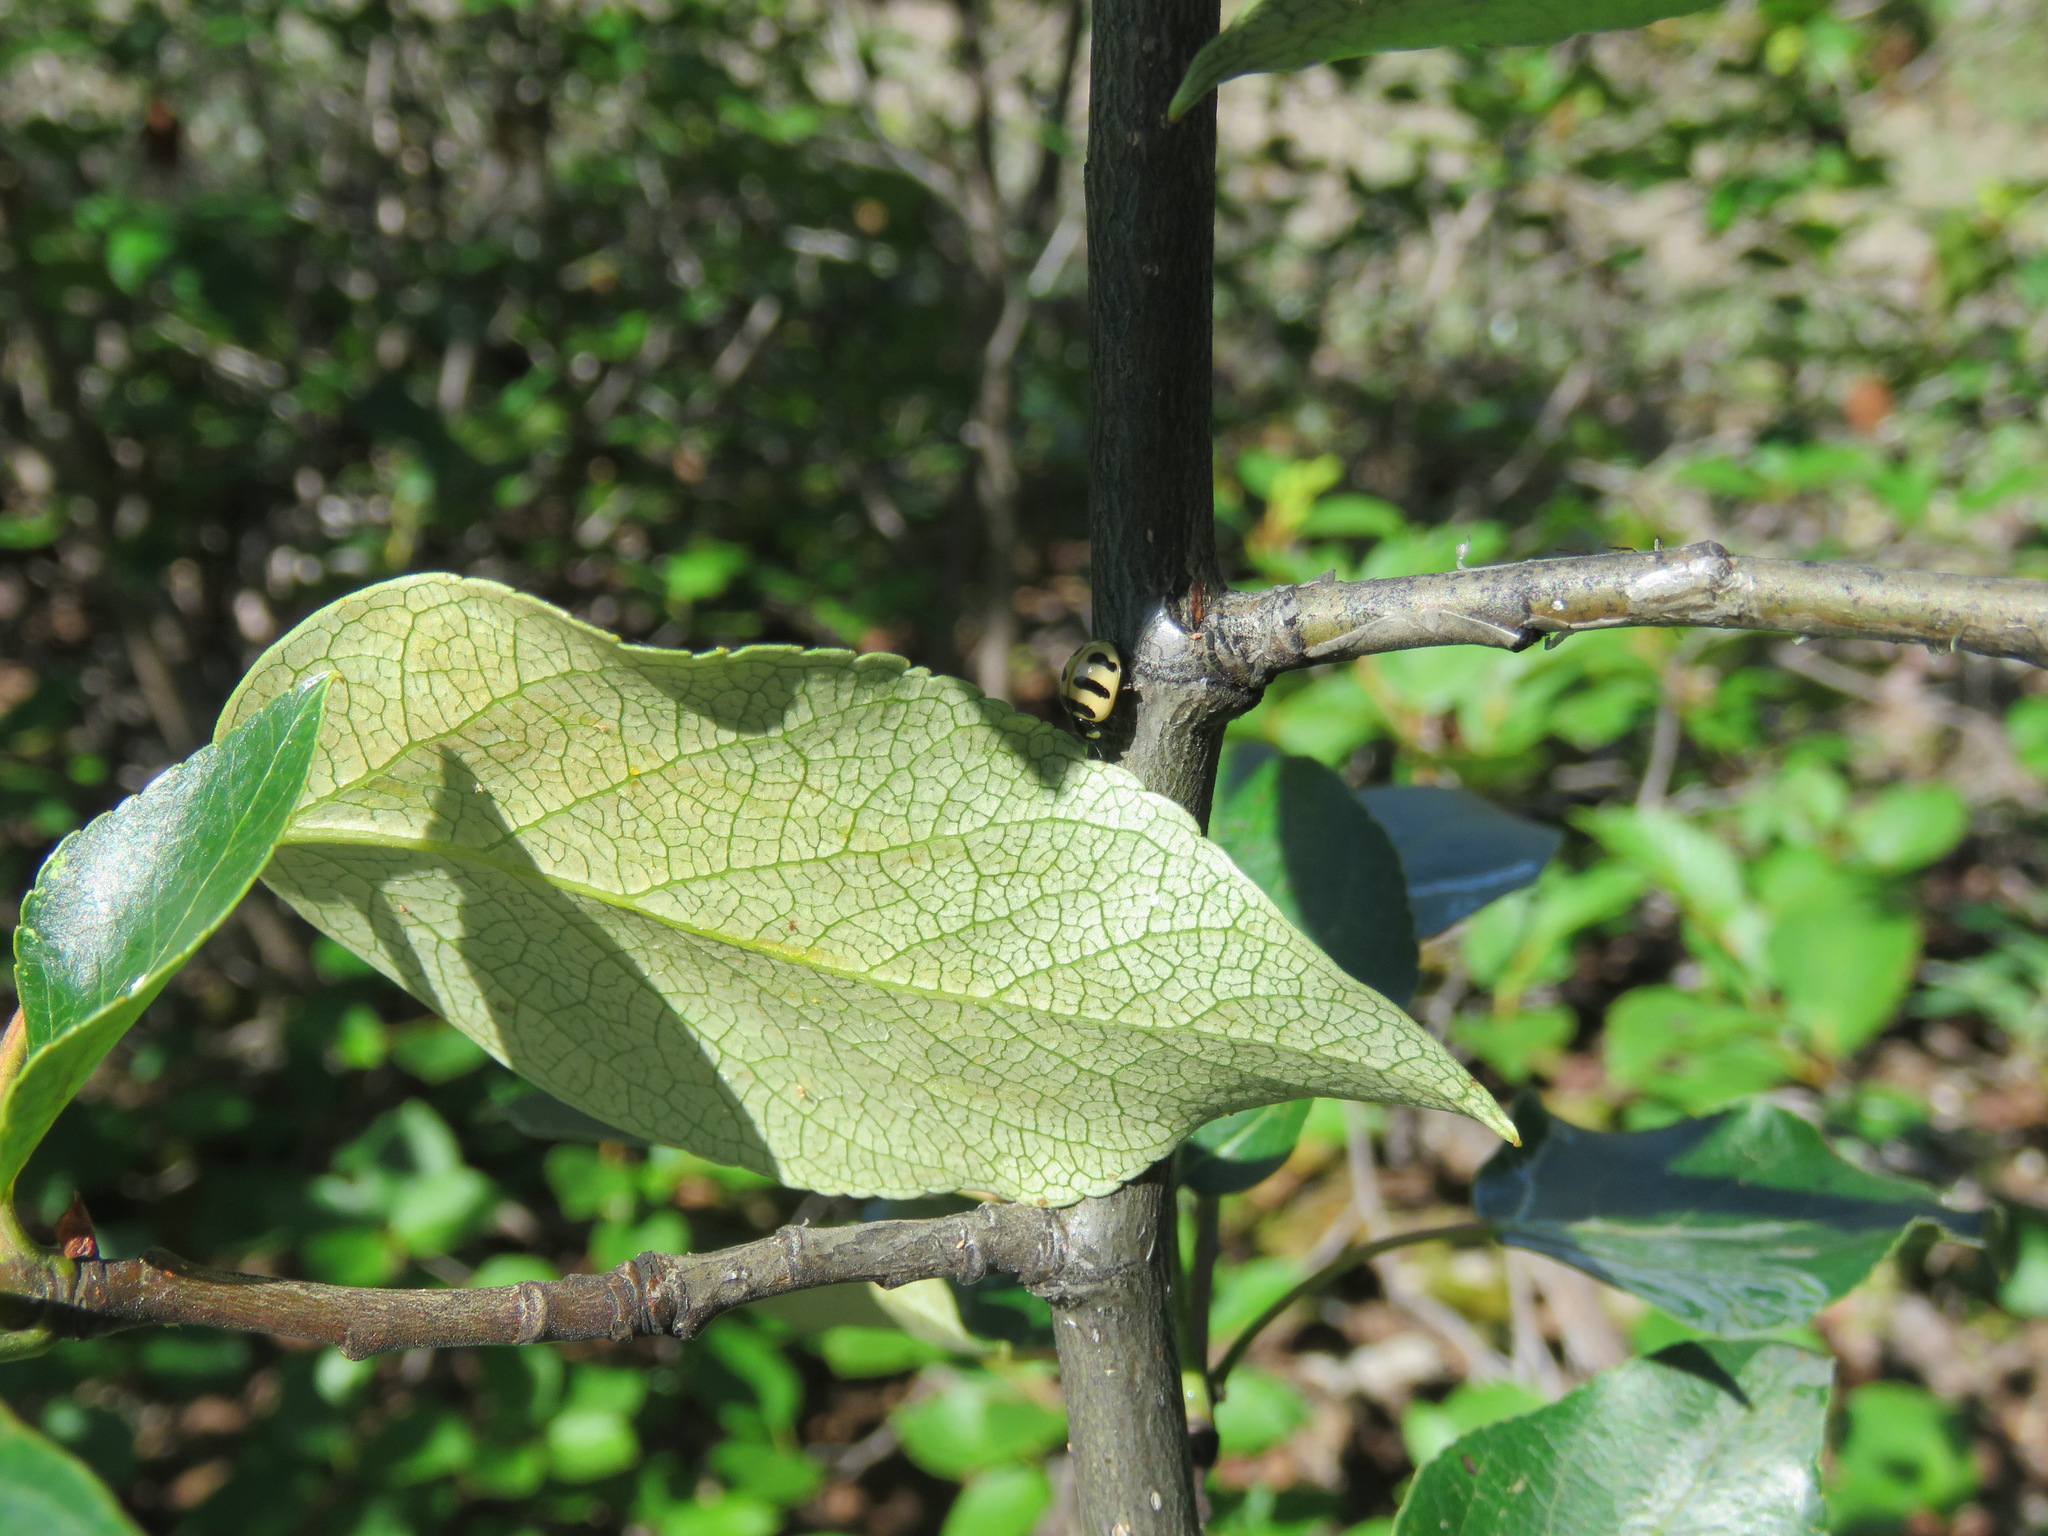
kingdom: Animalia
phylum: Arthropoda
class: Insecta
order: Coleoptera
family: Coccinellidae
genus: Coccinella
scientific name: Coccinella trifasciata
